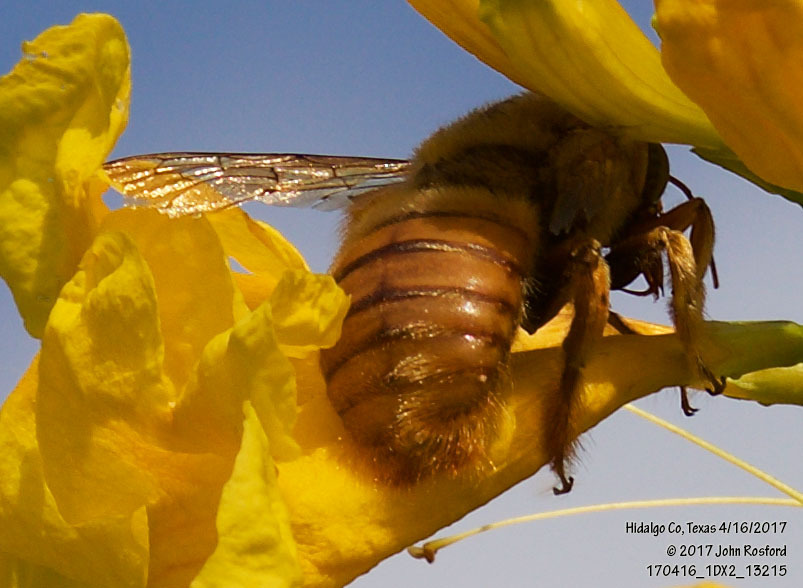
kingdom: Animalia
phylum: Arthropoda
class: Insecta
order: Hymenoptera
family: Apidae
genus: Xylocopa
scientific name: Xylocopa griswoldi
